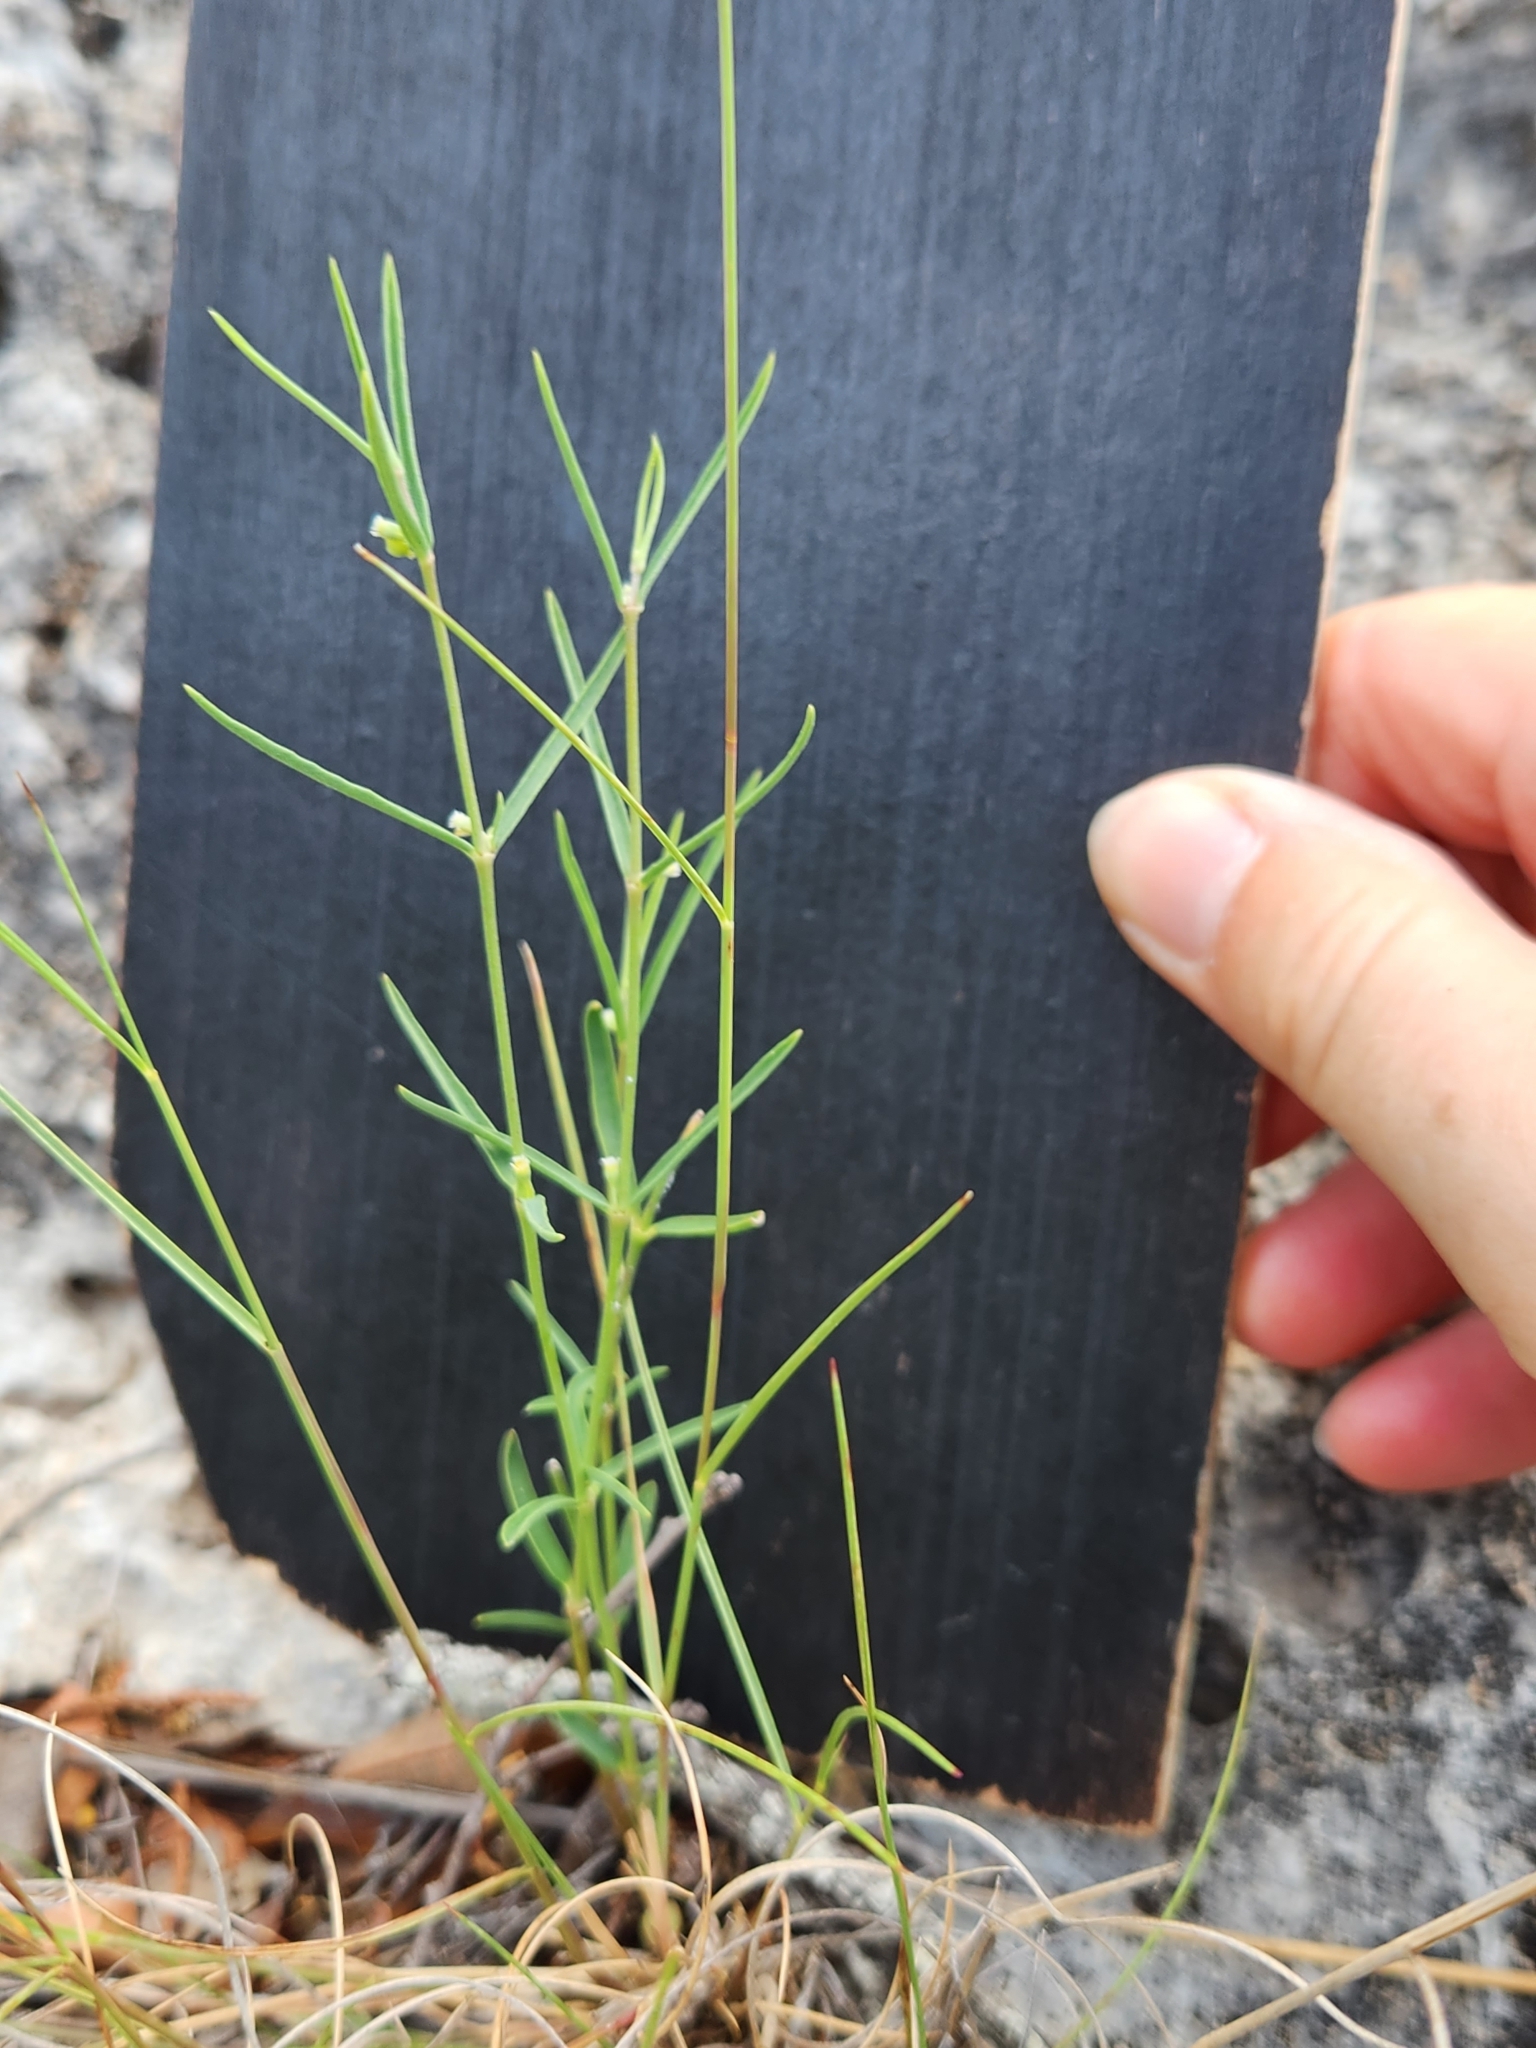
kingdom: Plantae
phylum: Tracheophyta
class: Magnoliopsida
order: Malpighiales
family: Euphorbiaceae
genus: Euphorbia
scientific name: Euphorbia angusta
